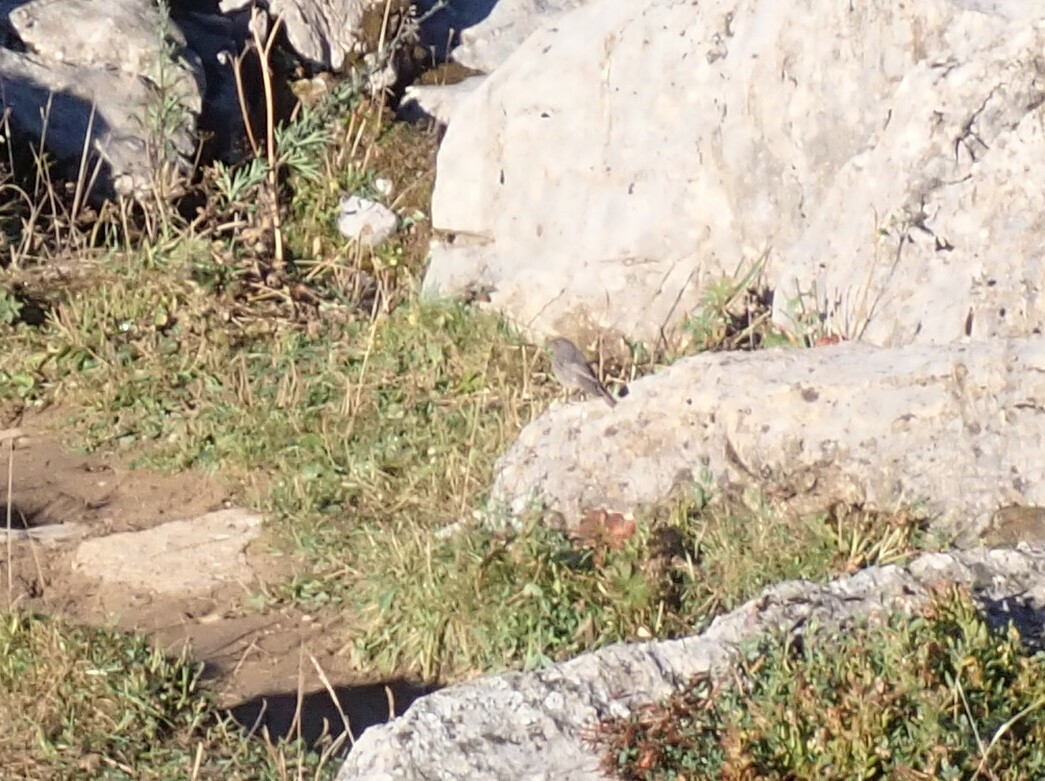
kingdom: Animalia
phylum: Chordata
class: Aves
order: Passeriformes
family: Muscicapidae
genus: Phoenicurus
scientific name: Phoenicurus ochruros
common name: Black redstart
